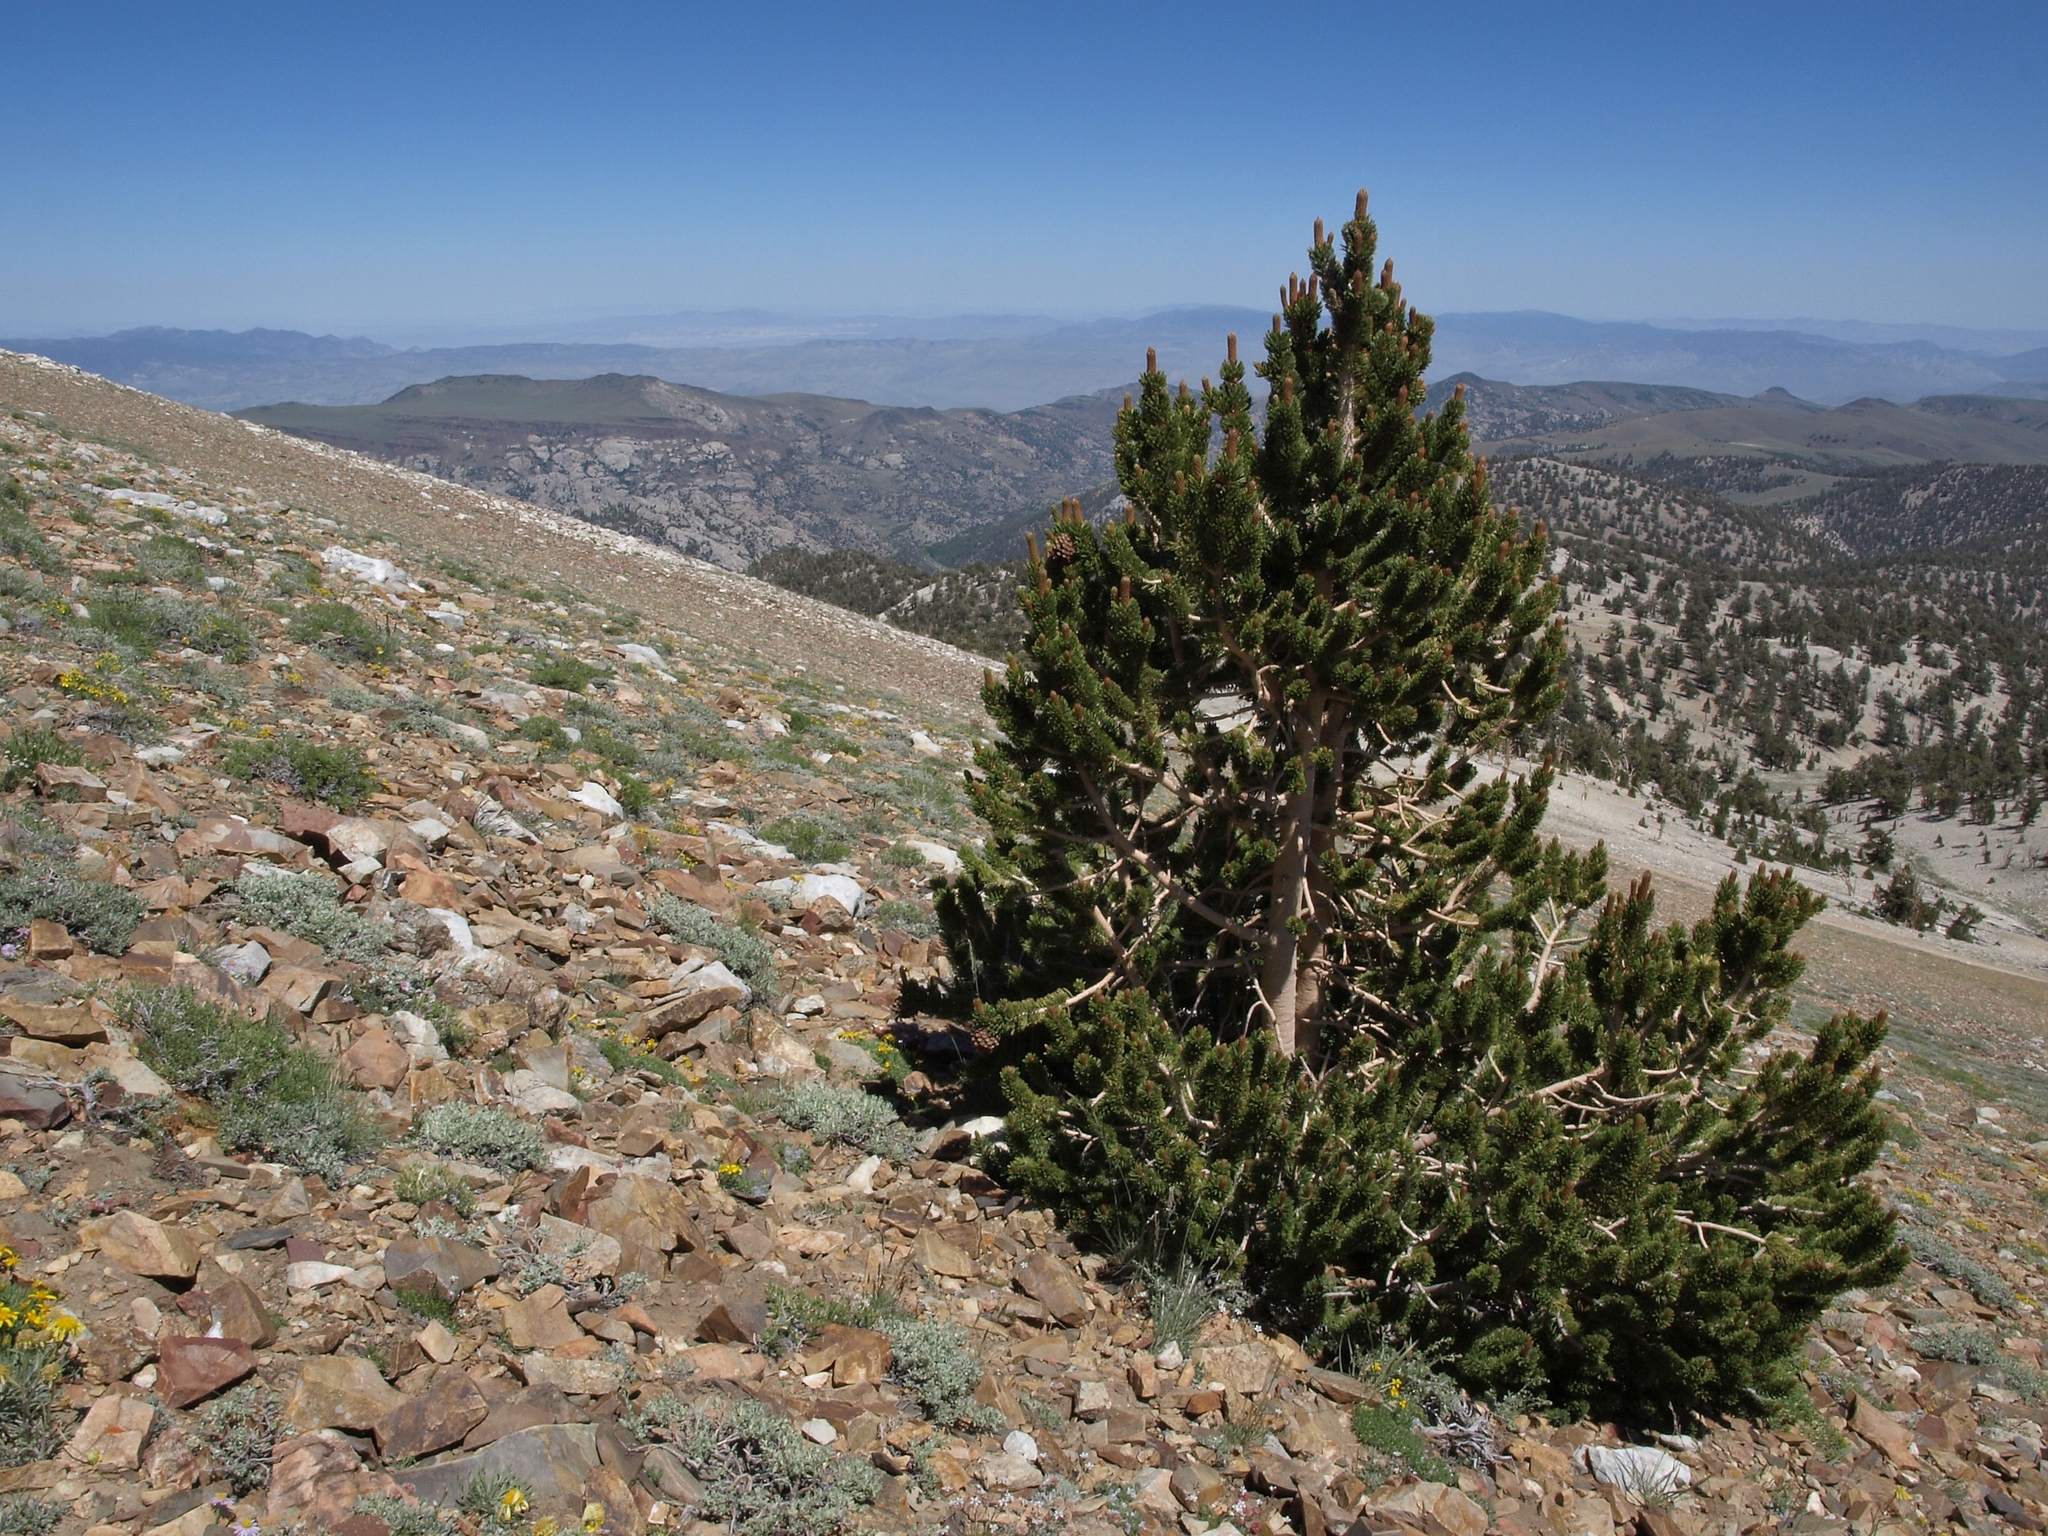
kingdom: Plantae
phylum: Tracheophyta
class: Pinopsida
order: Pinales
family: Pinaceae
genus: Pinus
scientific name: Pinus longaeva
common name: Intermountain bristlecone pine
